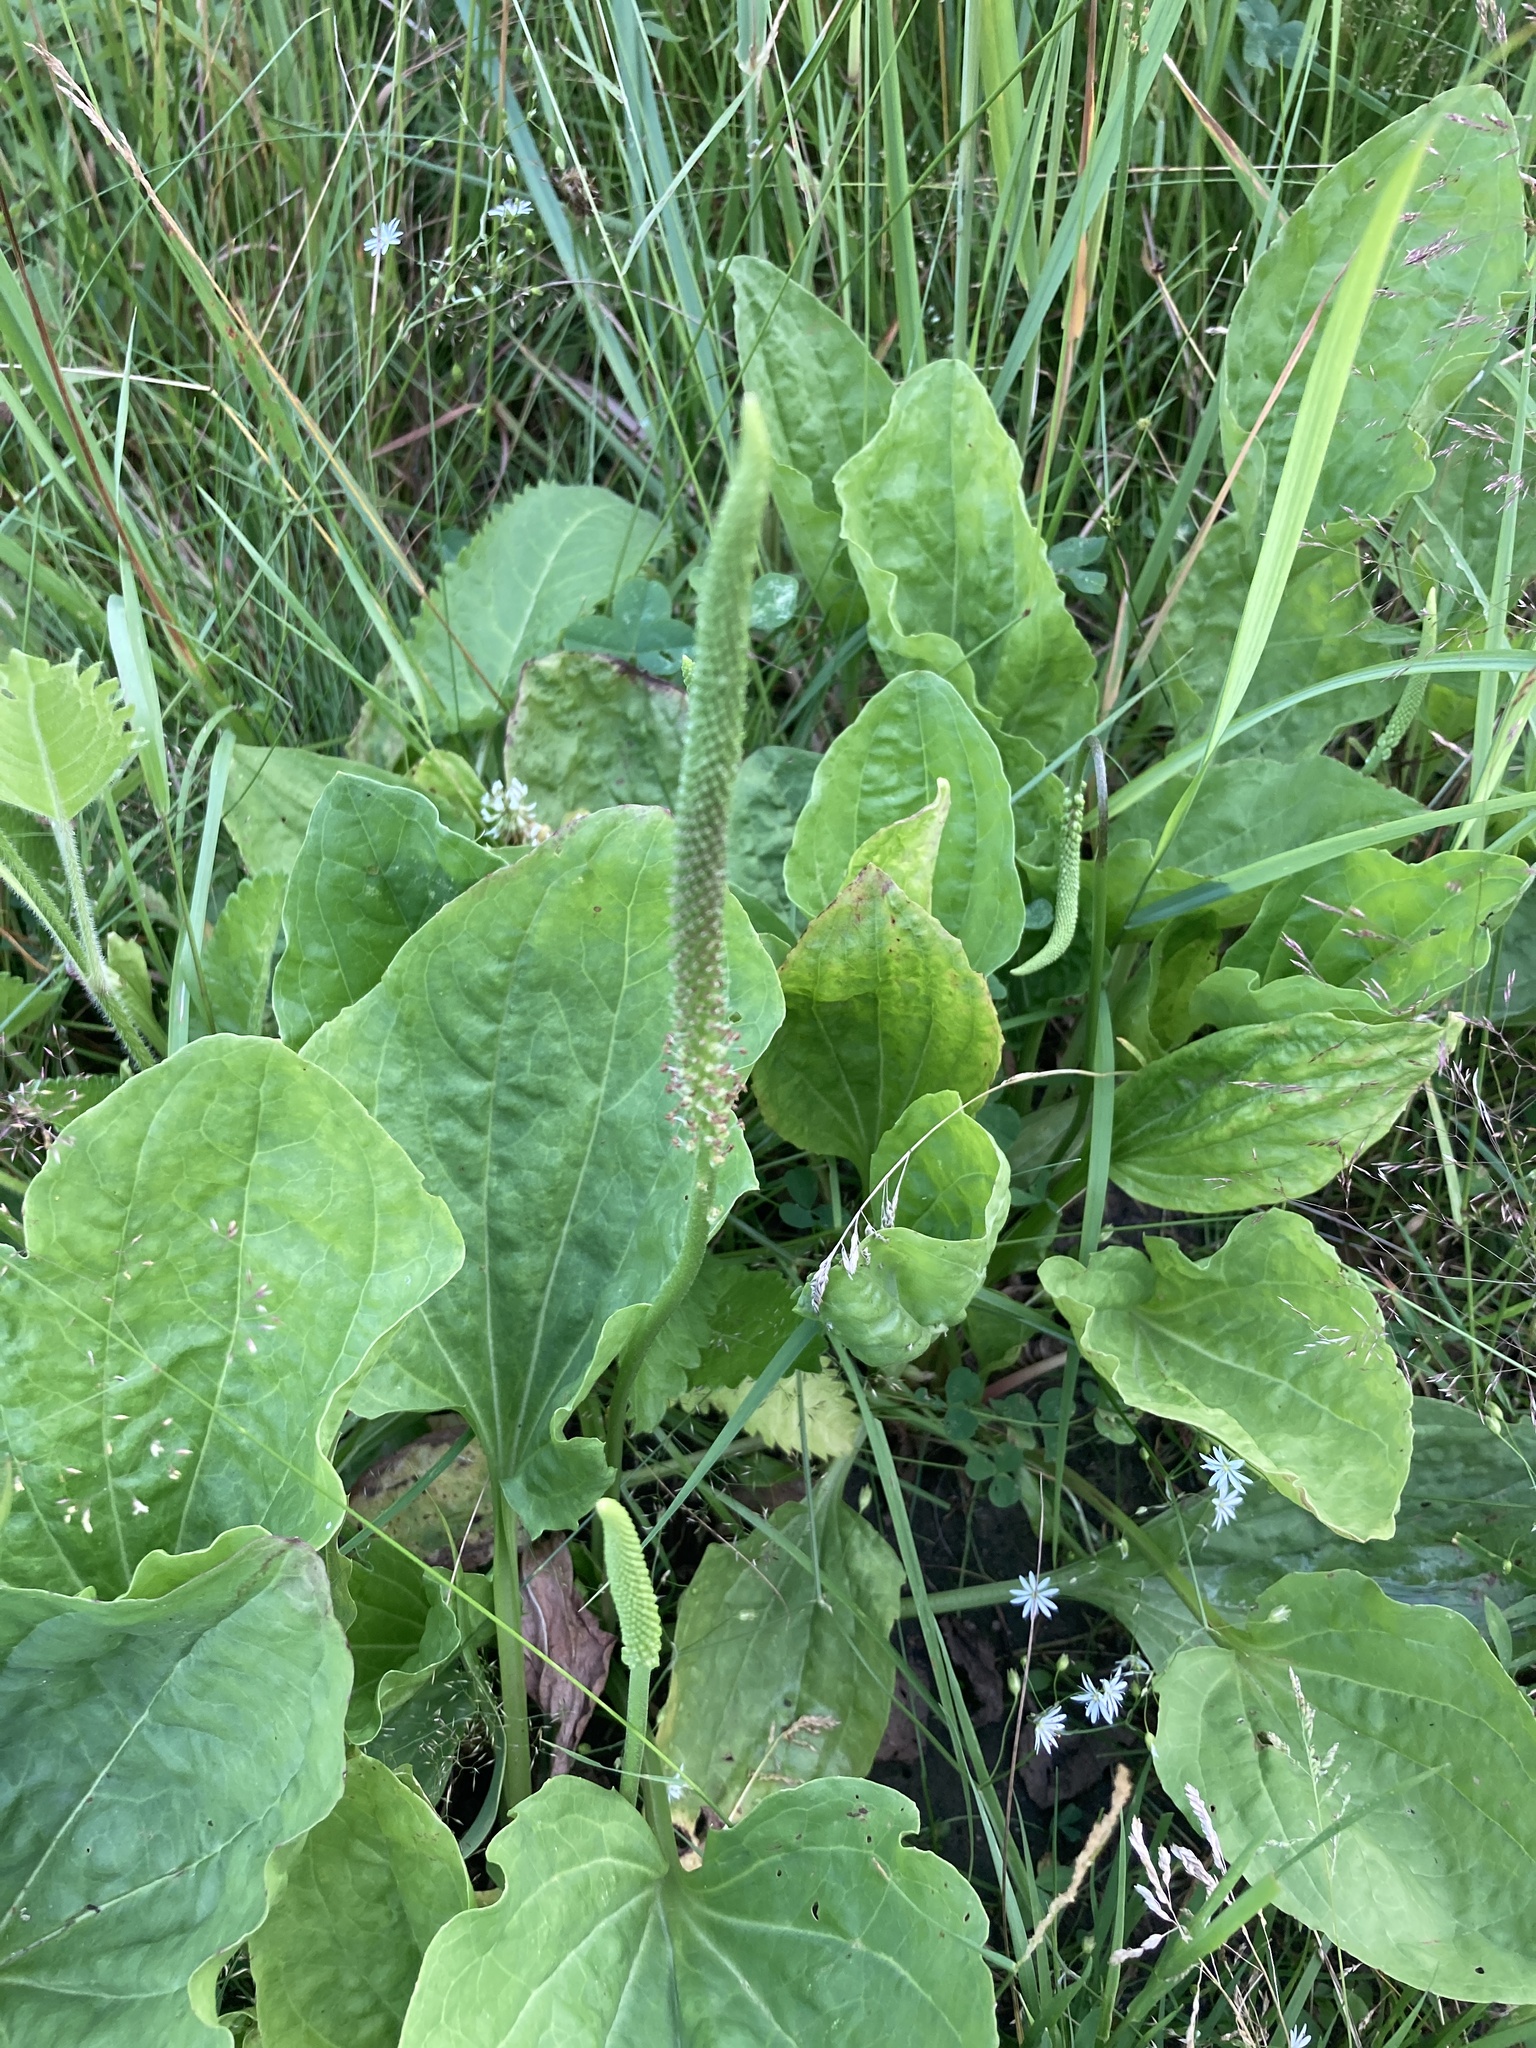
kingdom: Plantae
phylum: Tracheophyta
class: Magnoliopsida
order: Lamiales
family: Plantaginaceae
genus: Plantago
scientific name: Plantago major
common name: Common plantain
